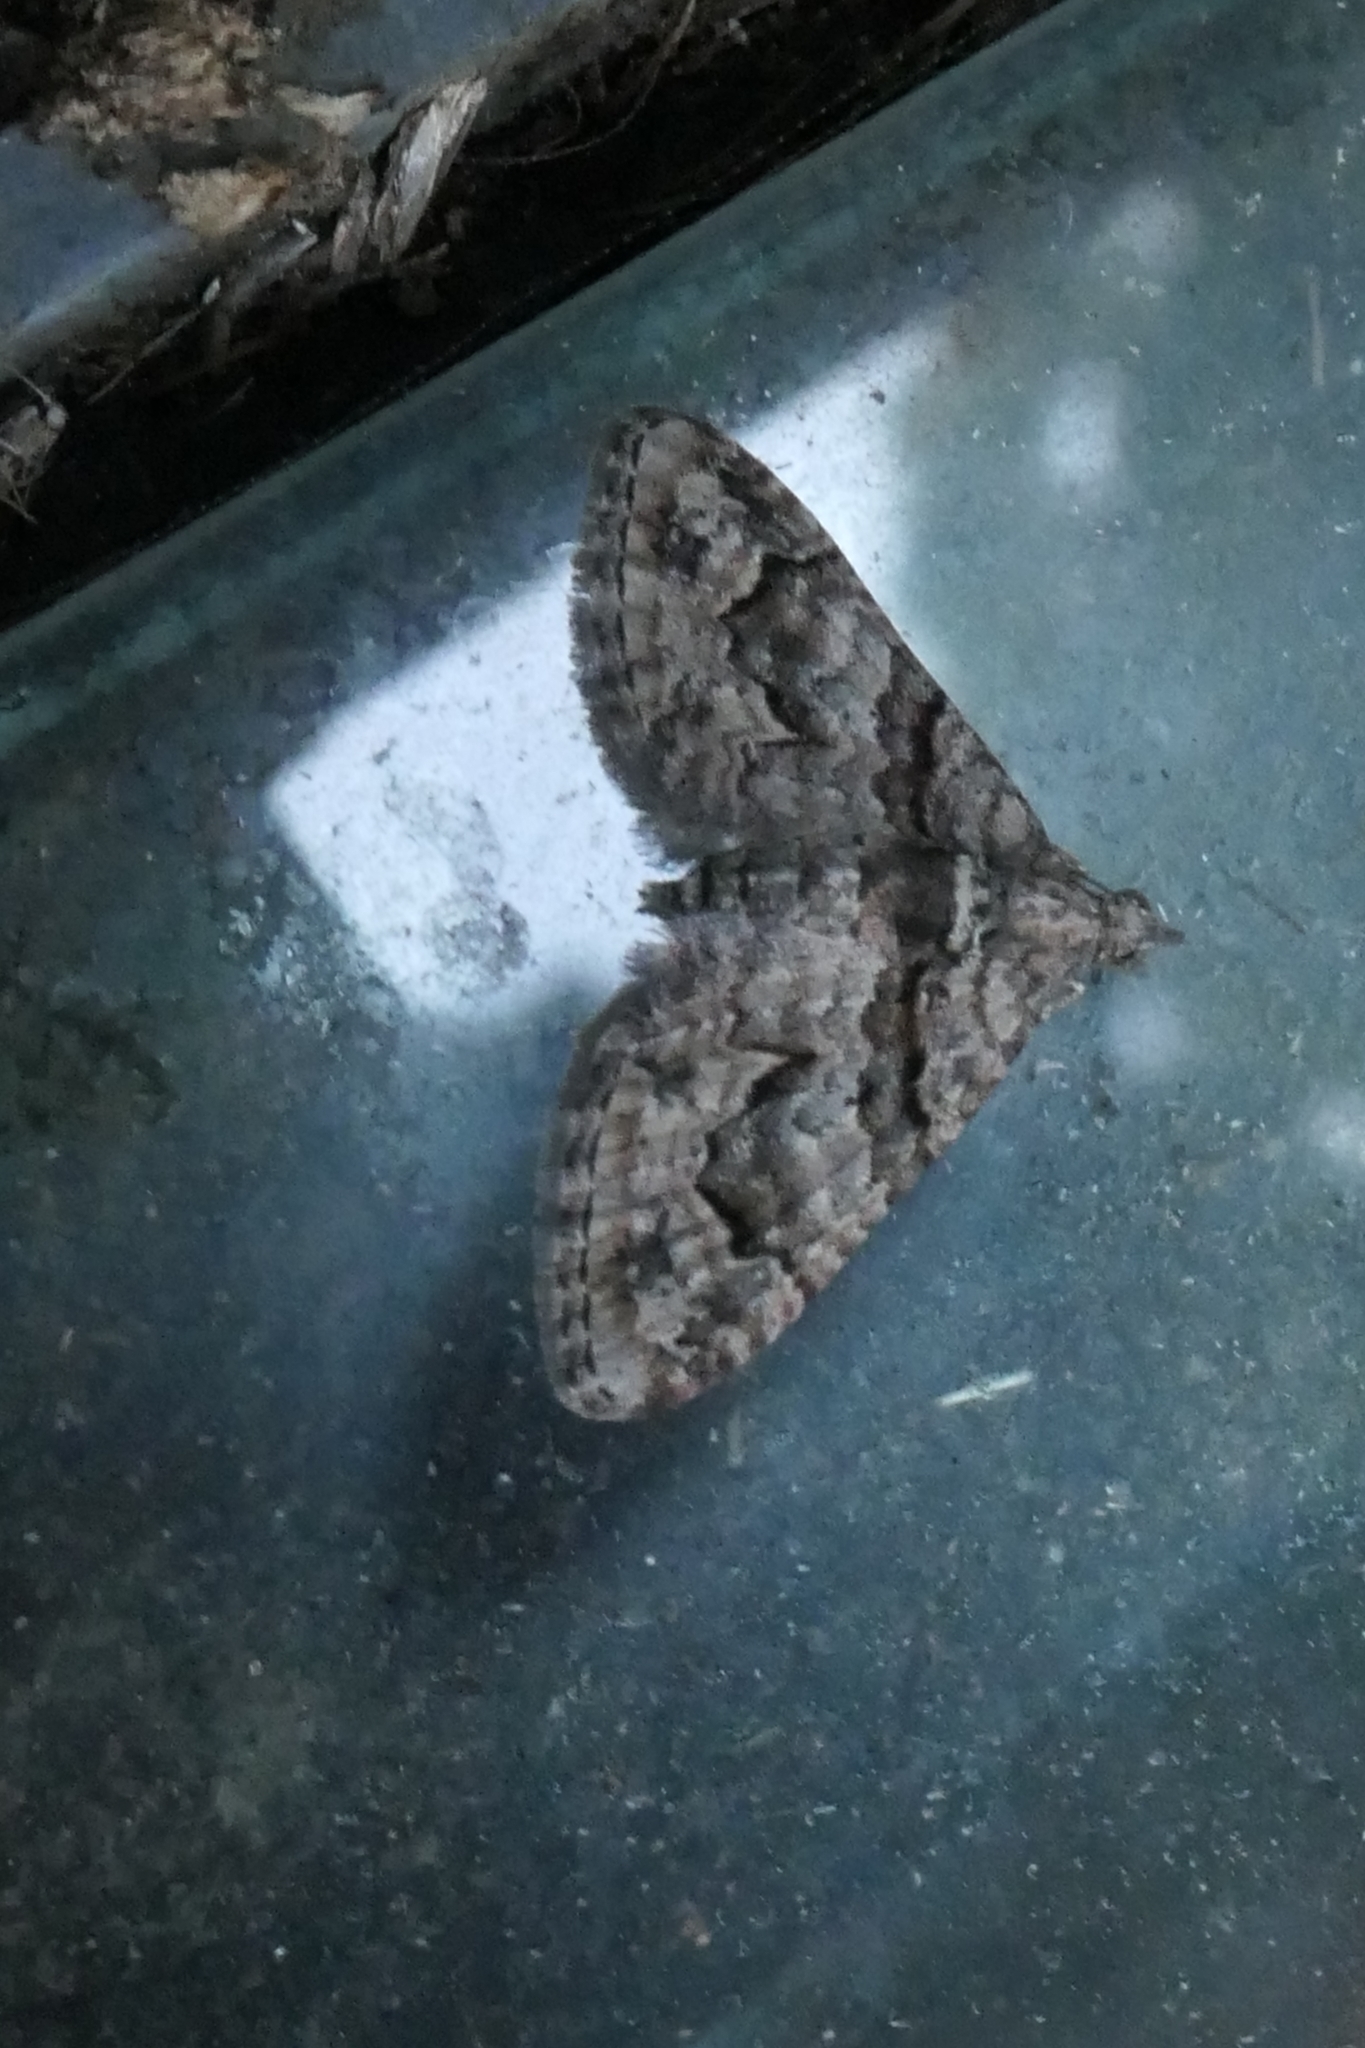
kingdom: Animalia
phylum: Arthropoda
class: Insecta
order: Lepidoptera
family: Geometridae
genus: Phrissogonus
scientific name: Phrissogonus laticostata
